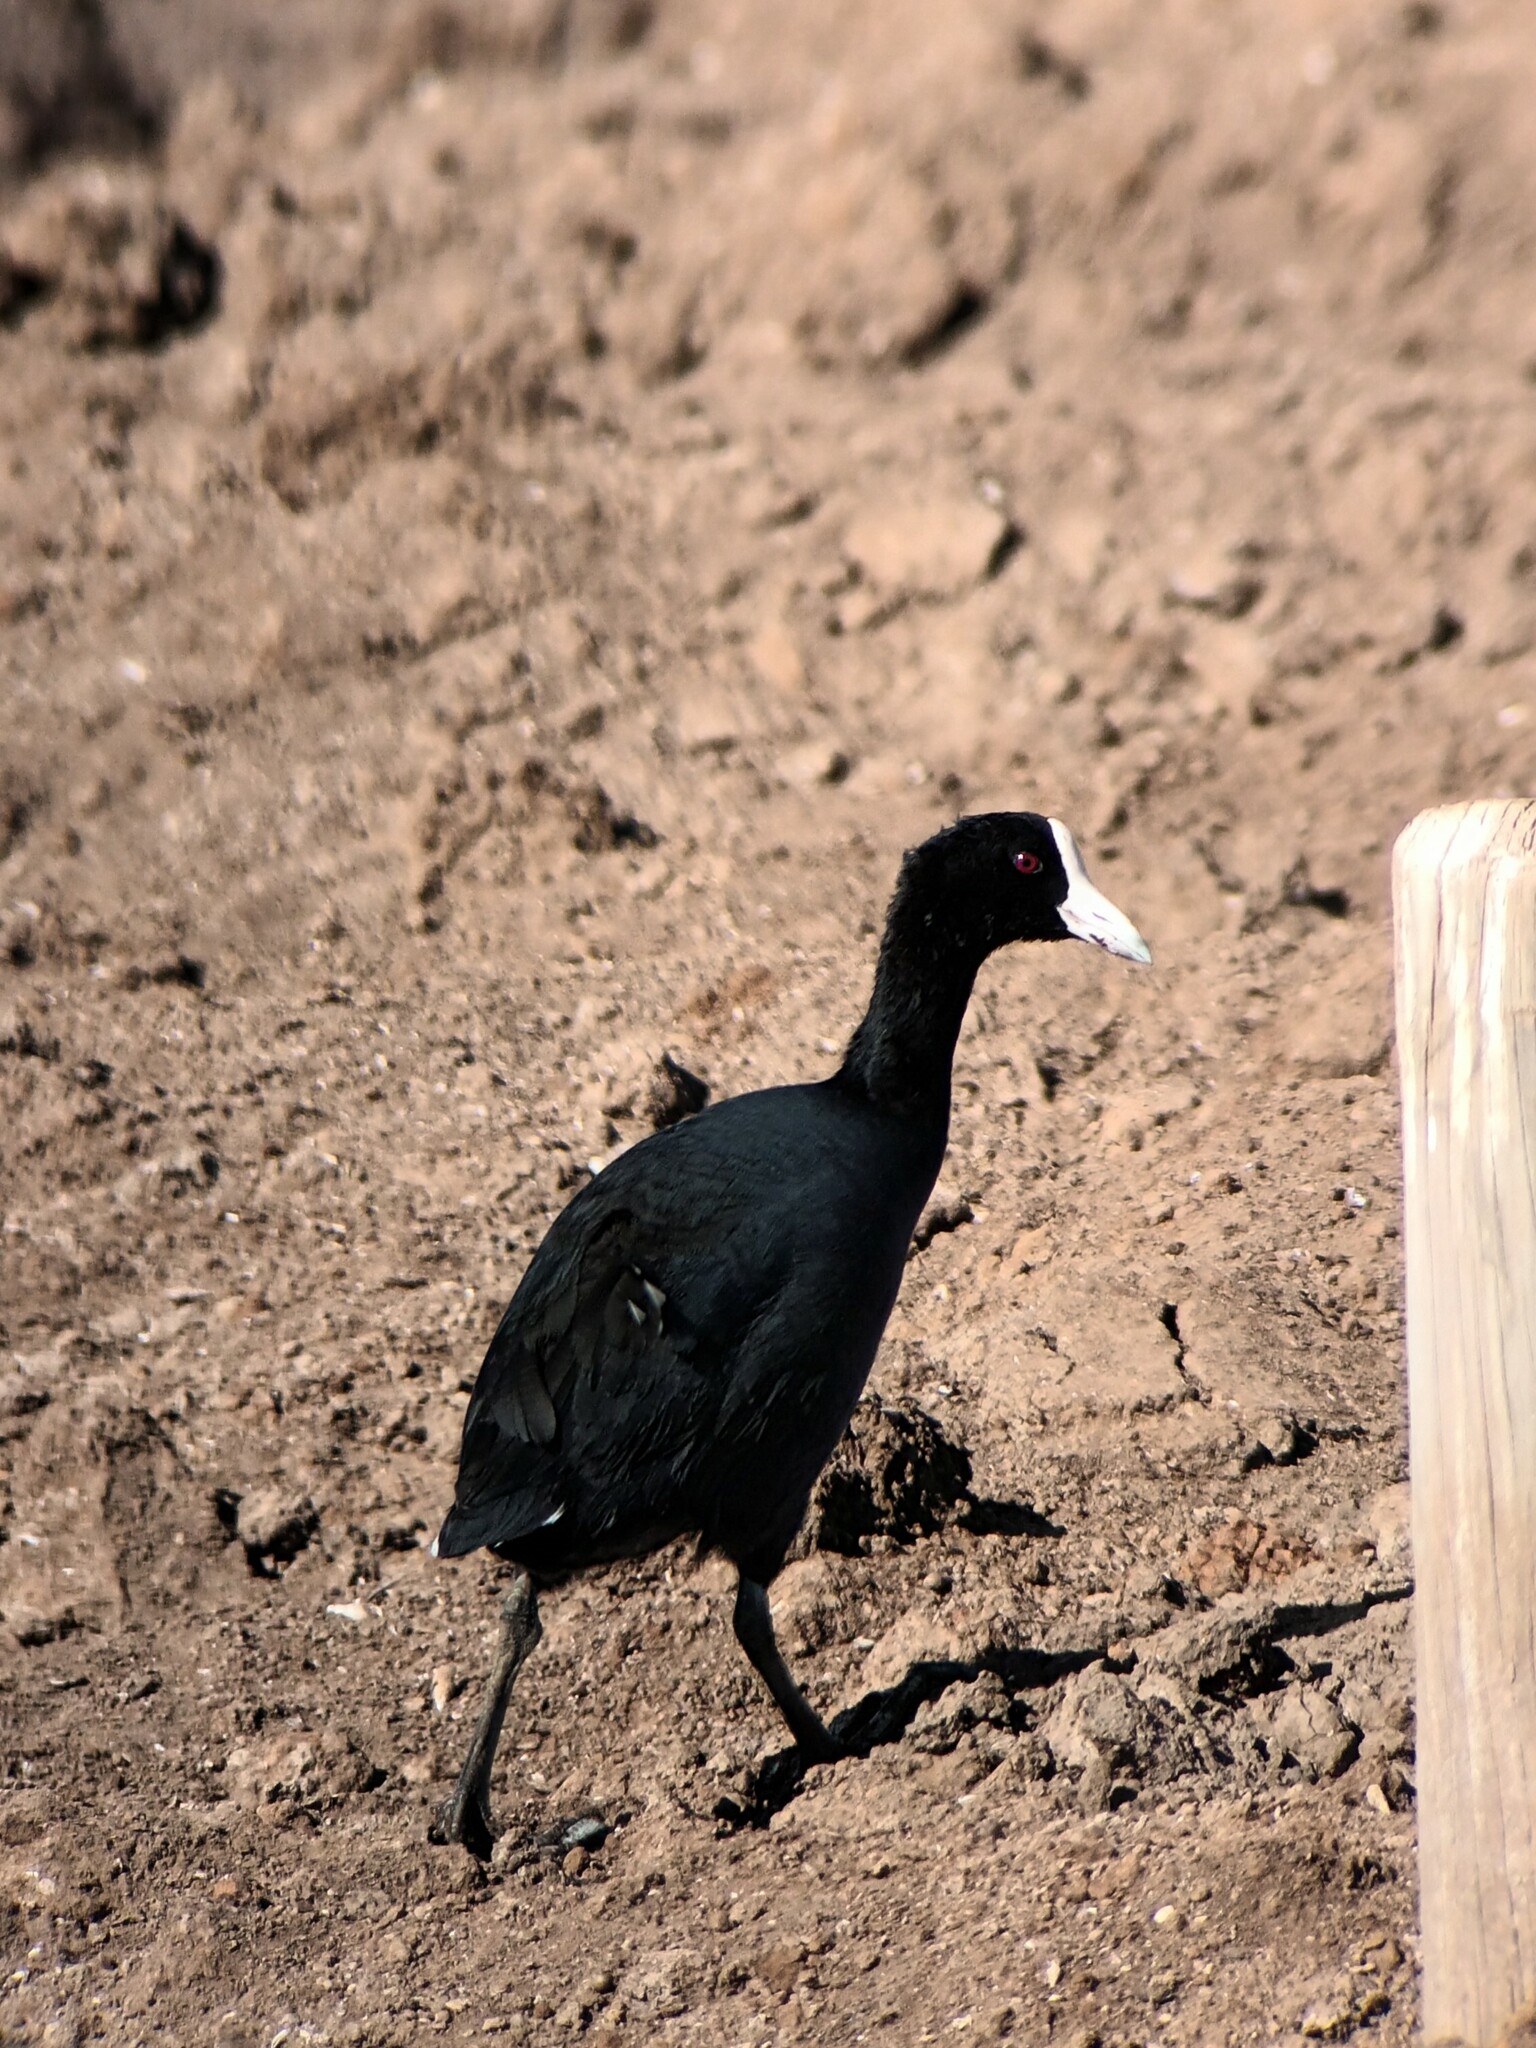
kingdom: Animalia
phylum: Chordata
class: Aves
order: Gruiformes
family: Rallidae
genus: Fulica
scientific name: Fulica alai
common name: Hawaiian coot
